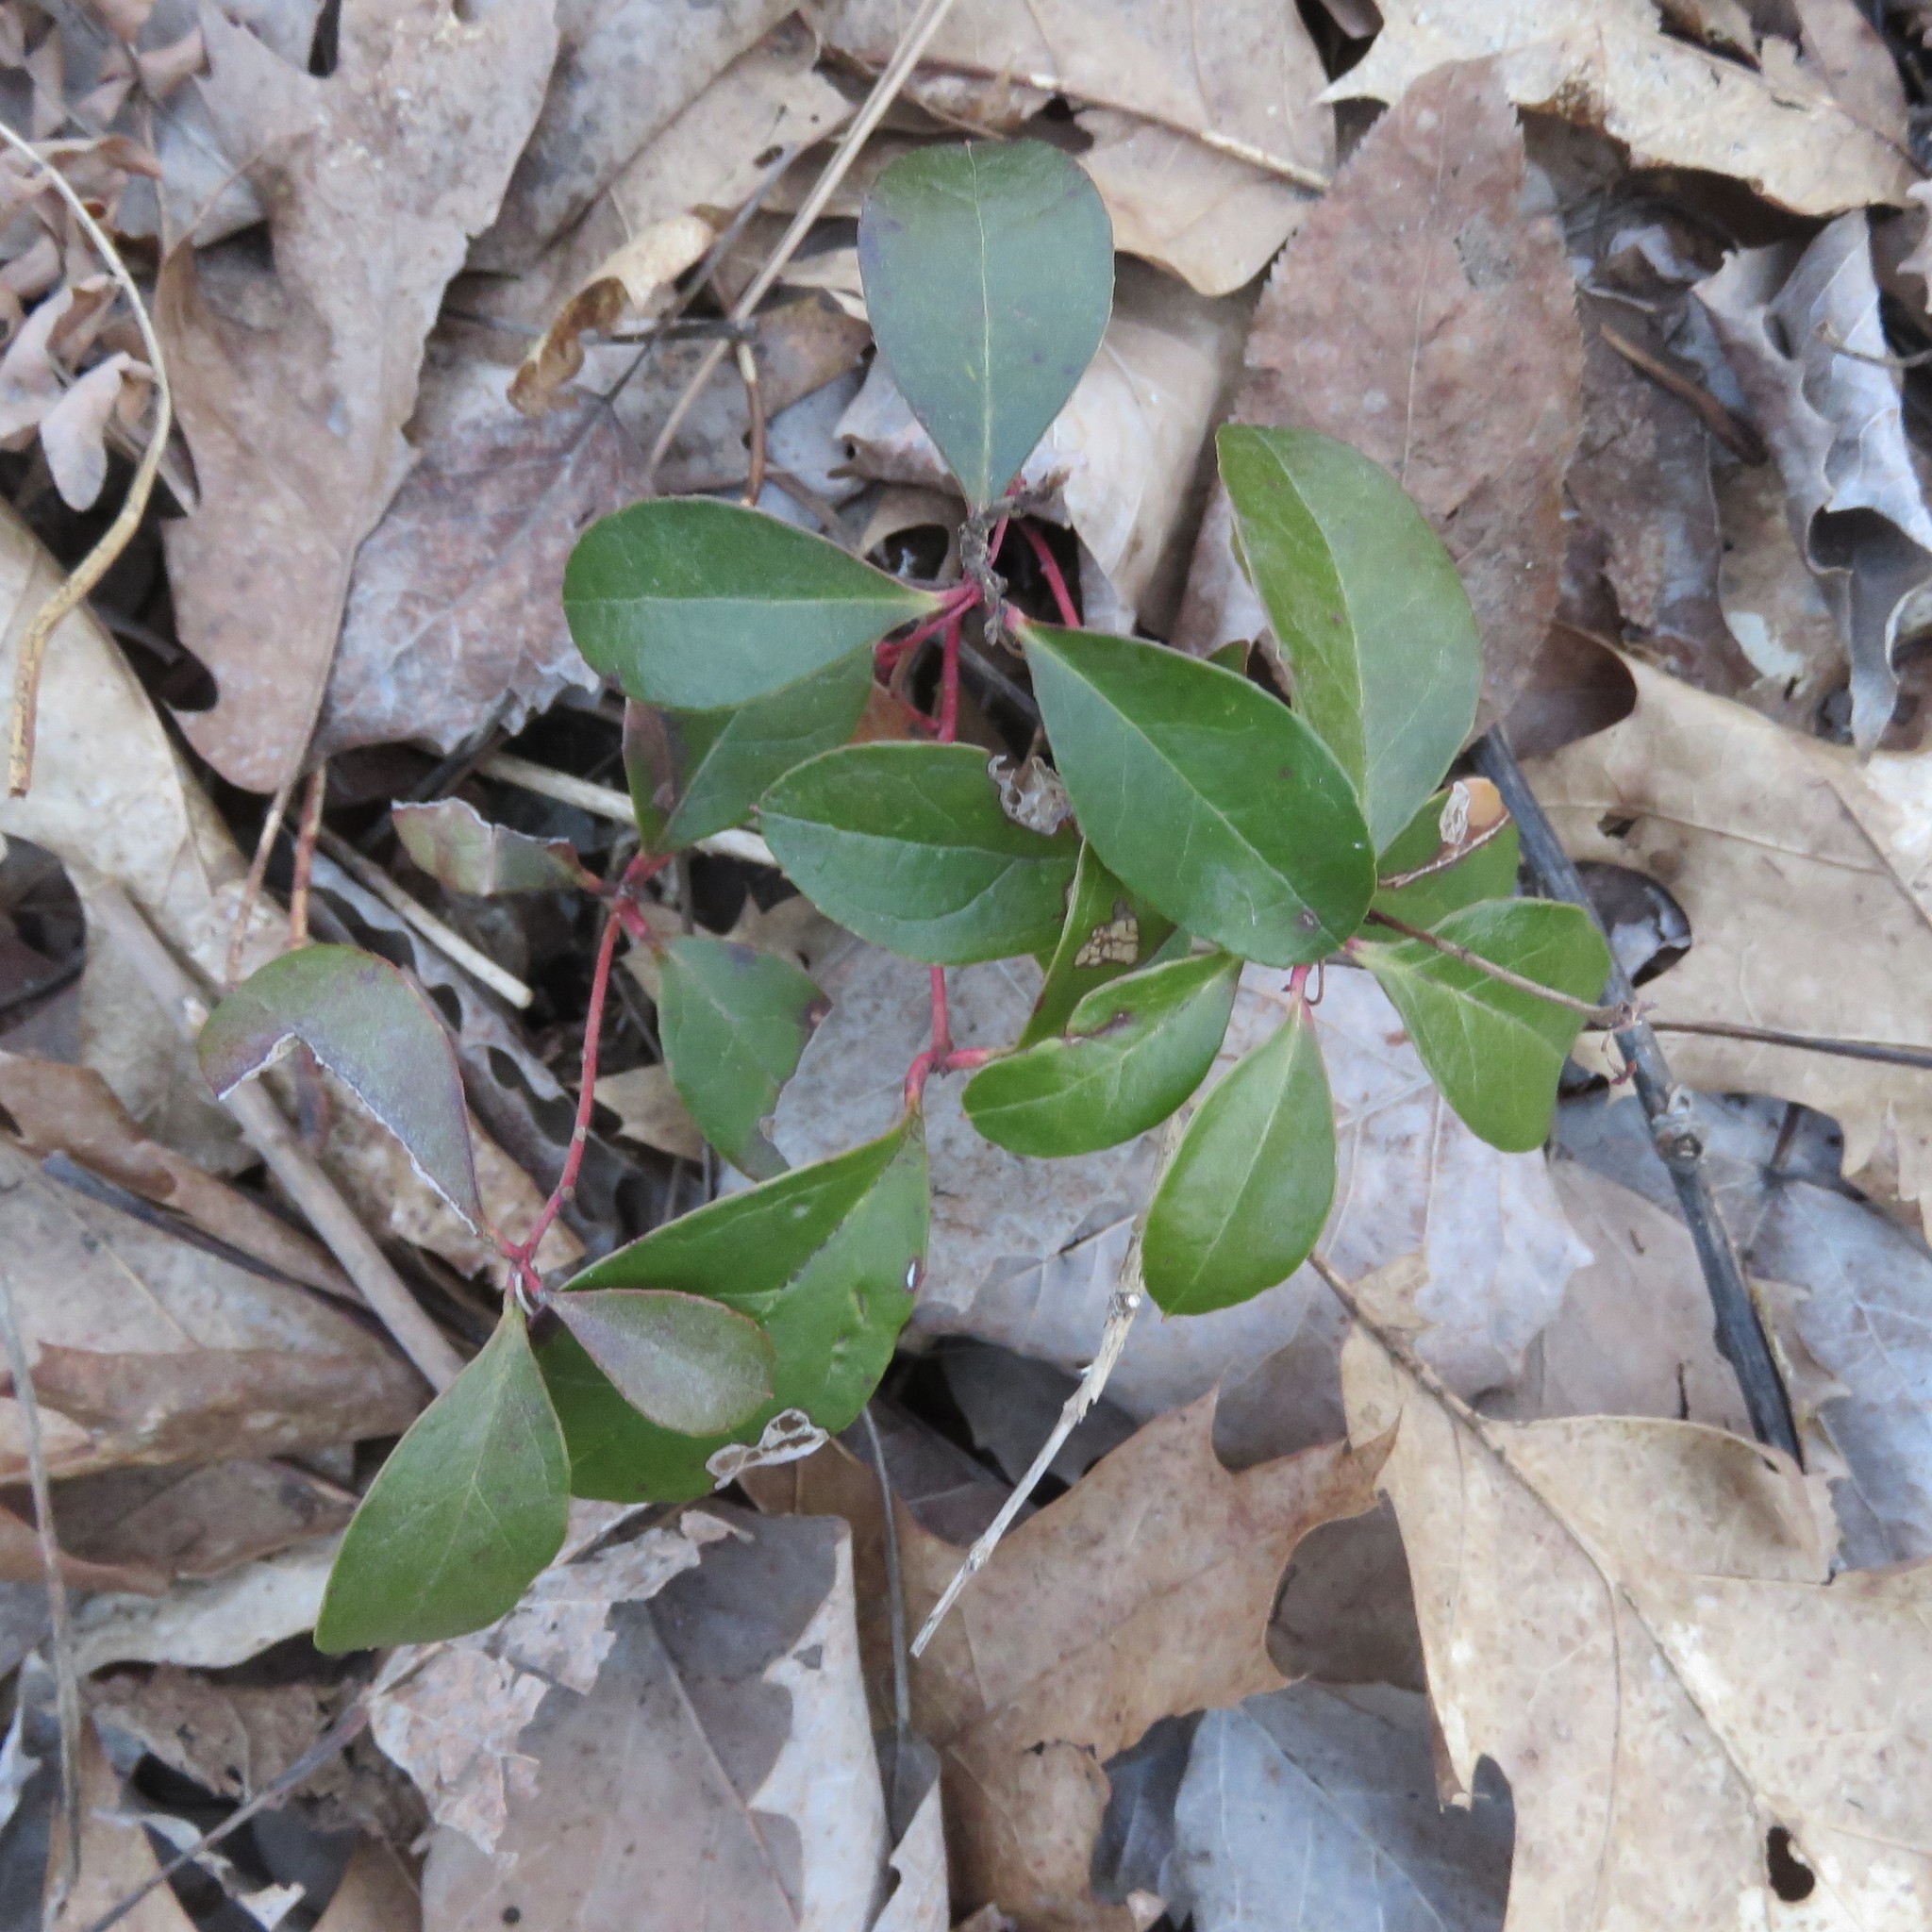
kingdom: Plantae
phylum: Tracheophyta
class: Magnoliopsida
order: Ericales
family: Ericaceae
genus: Gaultheria
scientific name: Gaultheria procumbens
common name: Checkerberry
